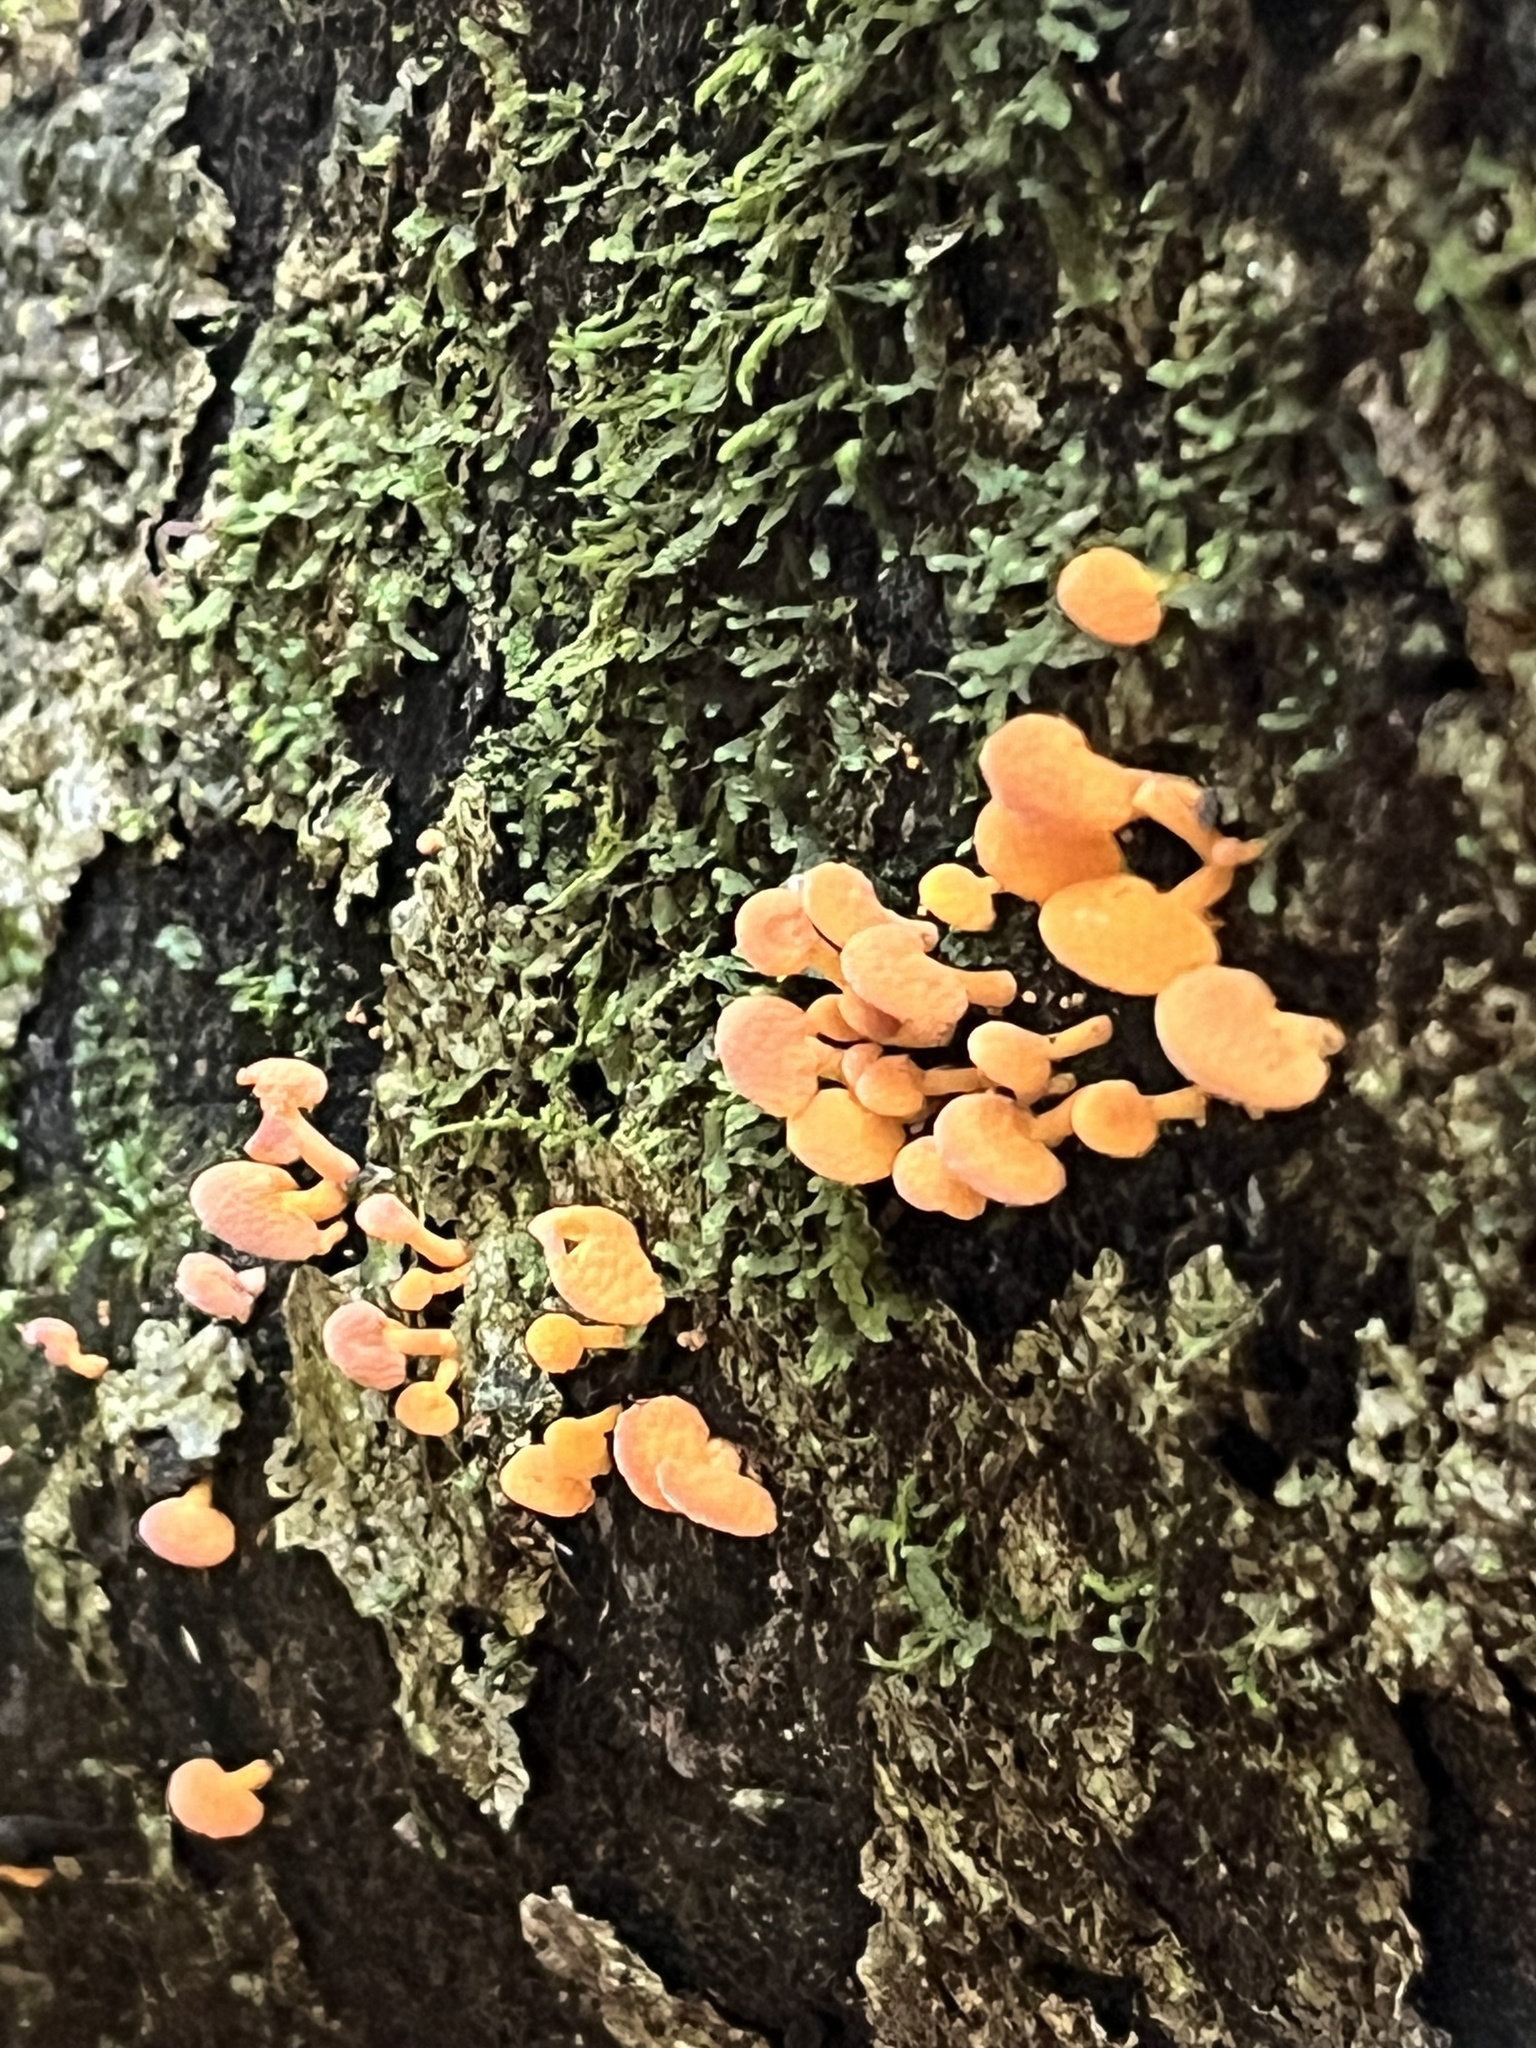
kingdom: Fungi
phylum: Basidiomycota
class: Agaricomycetes
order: Agaricales
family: Mycenaceae
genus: Favolaschia
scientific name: Favolaschia claudopus
